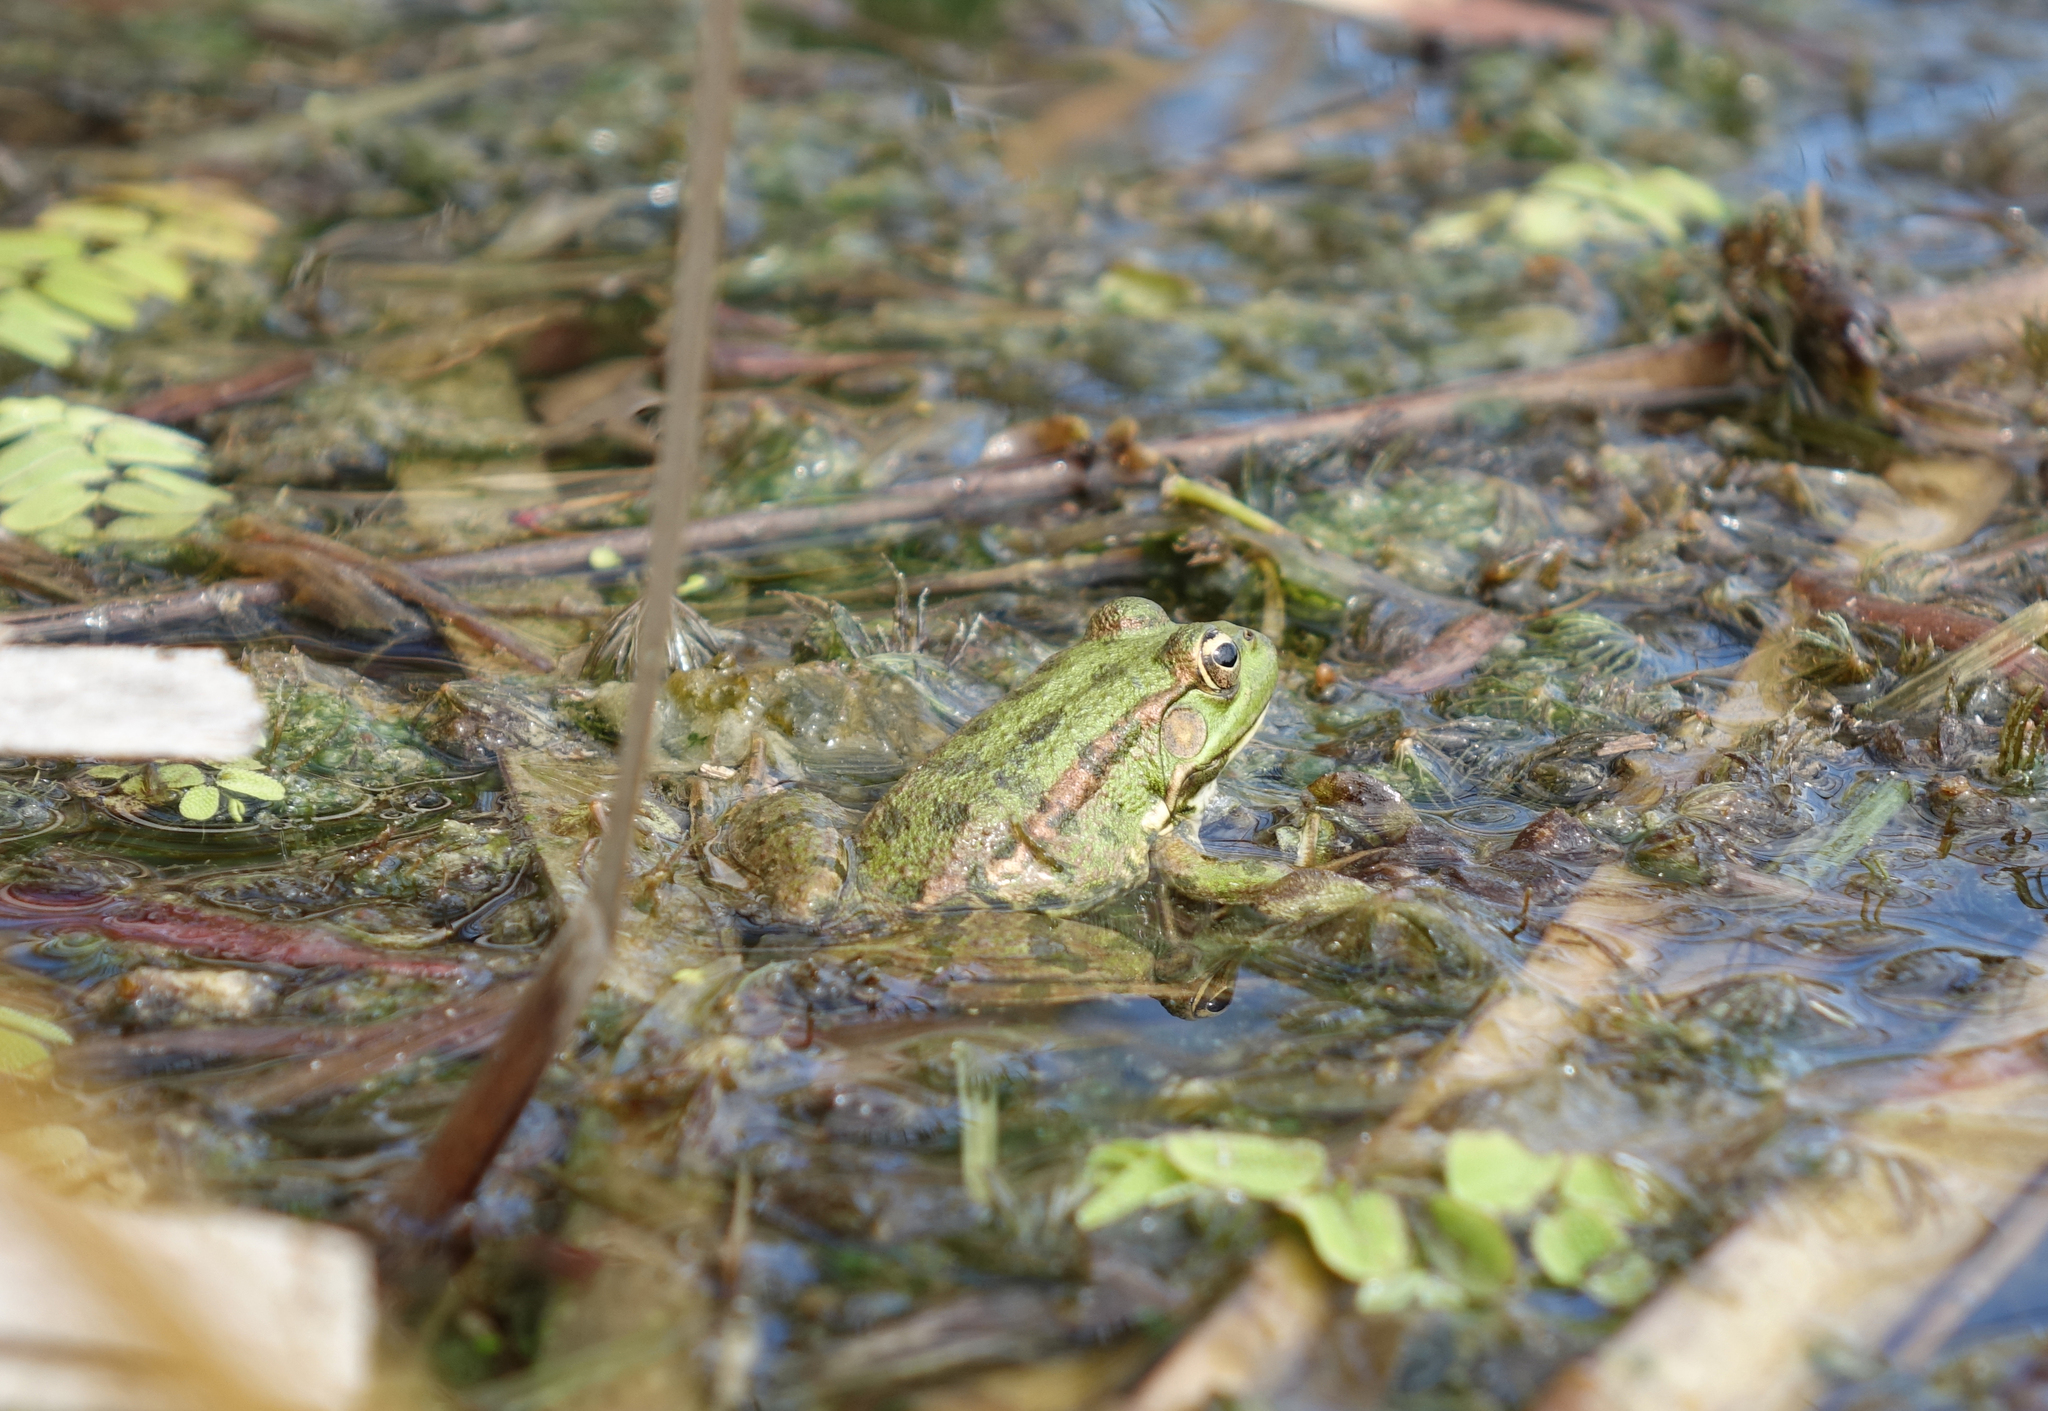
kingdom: Animalia
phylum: Chordata
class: Amphibia
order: Anura
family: Ranidae
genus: Pelophylax
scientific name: Pelophylax ridibundus
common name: Marsh frog
